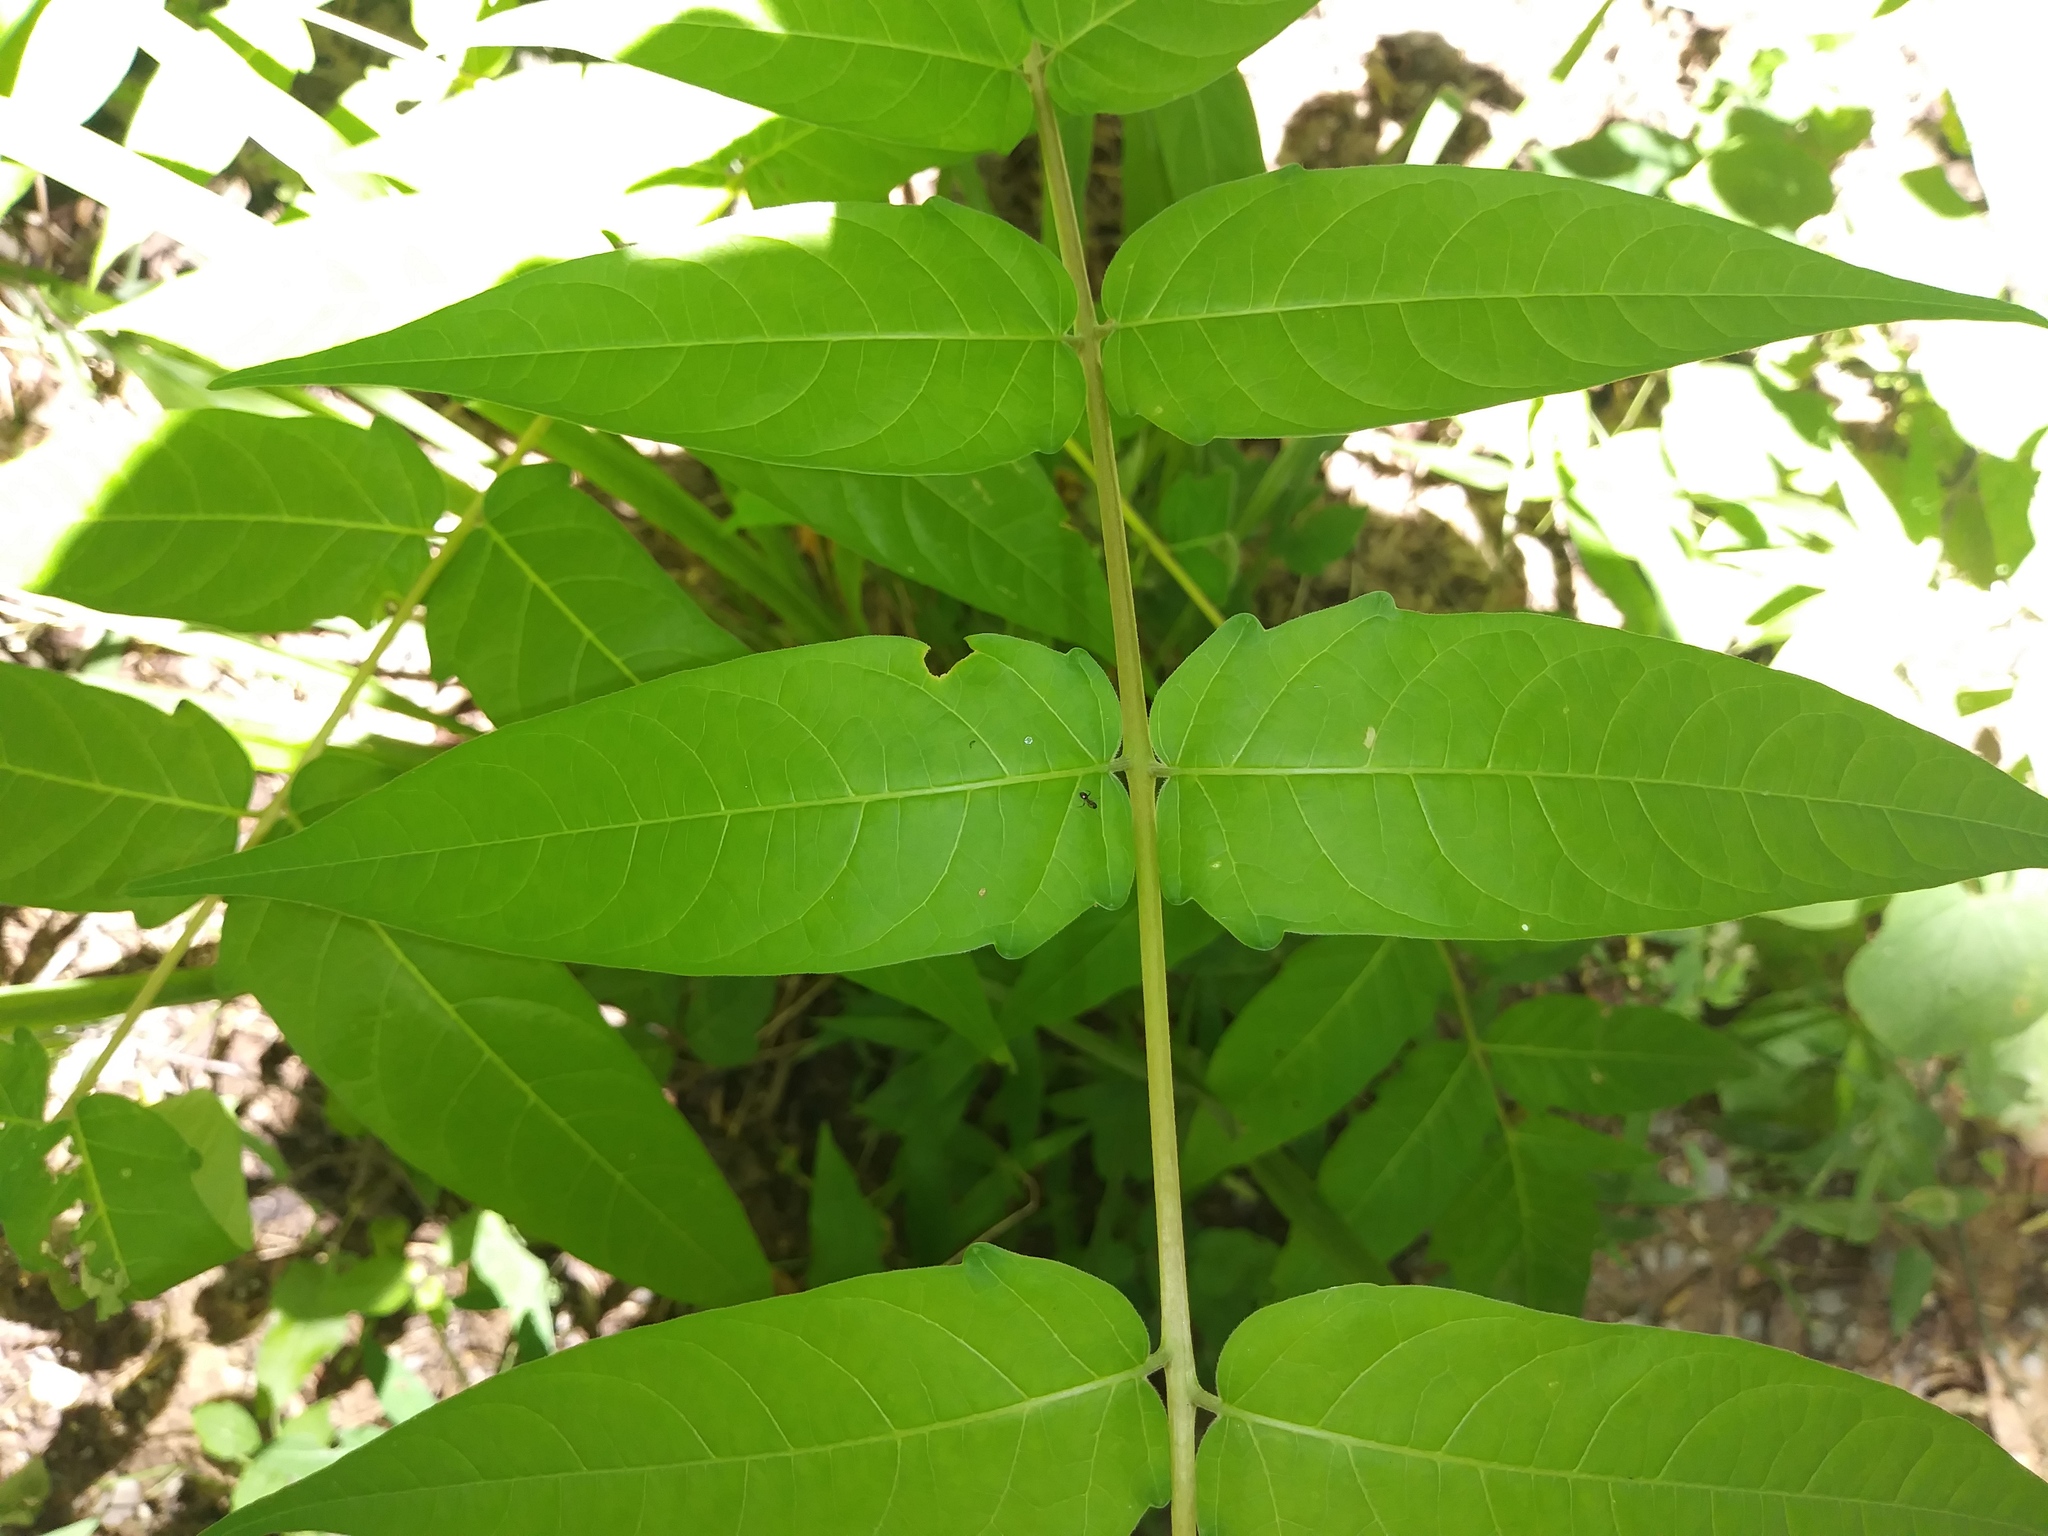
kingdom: Plantae
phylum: Tracheophyta
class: Magnoliopsida
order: Sapindales
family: Simaroubaceae
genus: Ailanthus
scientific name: Ailanthus altissima
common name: Tree-of-heaven
